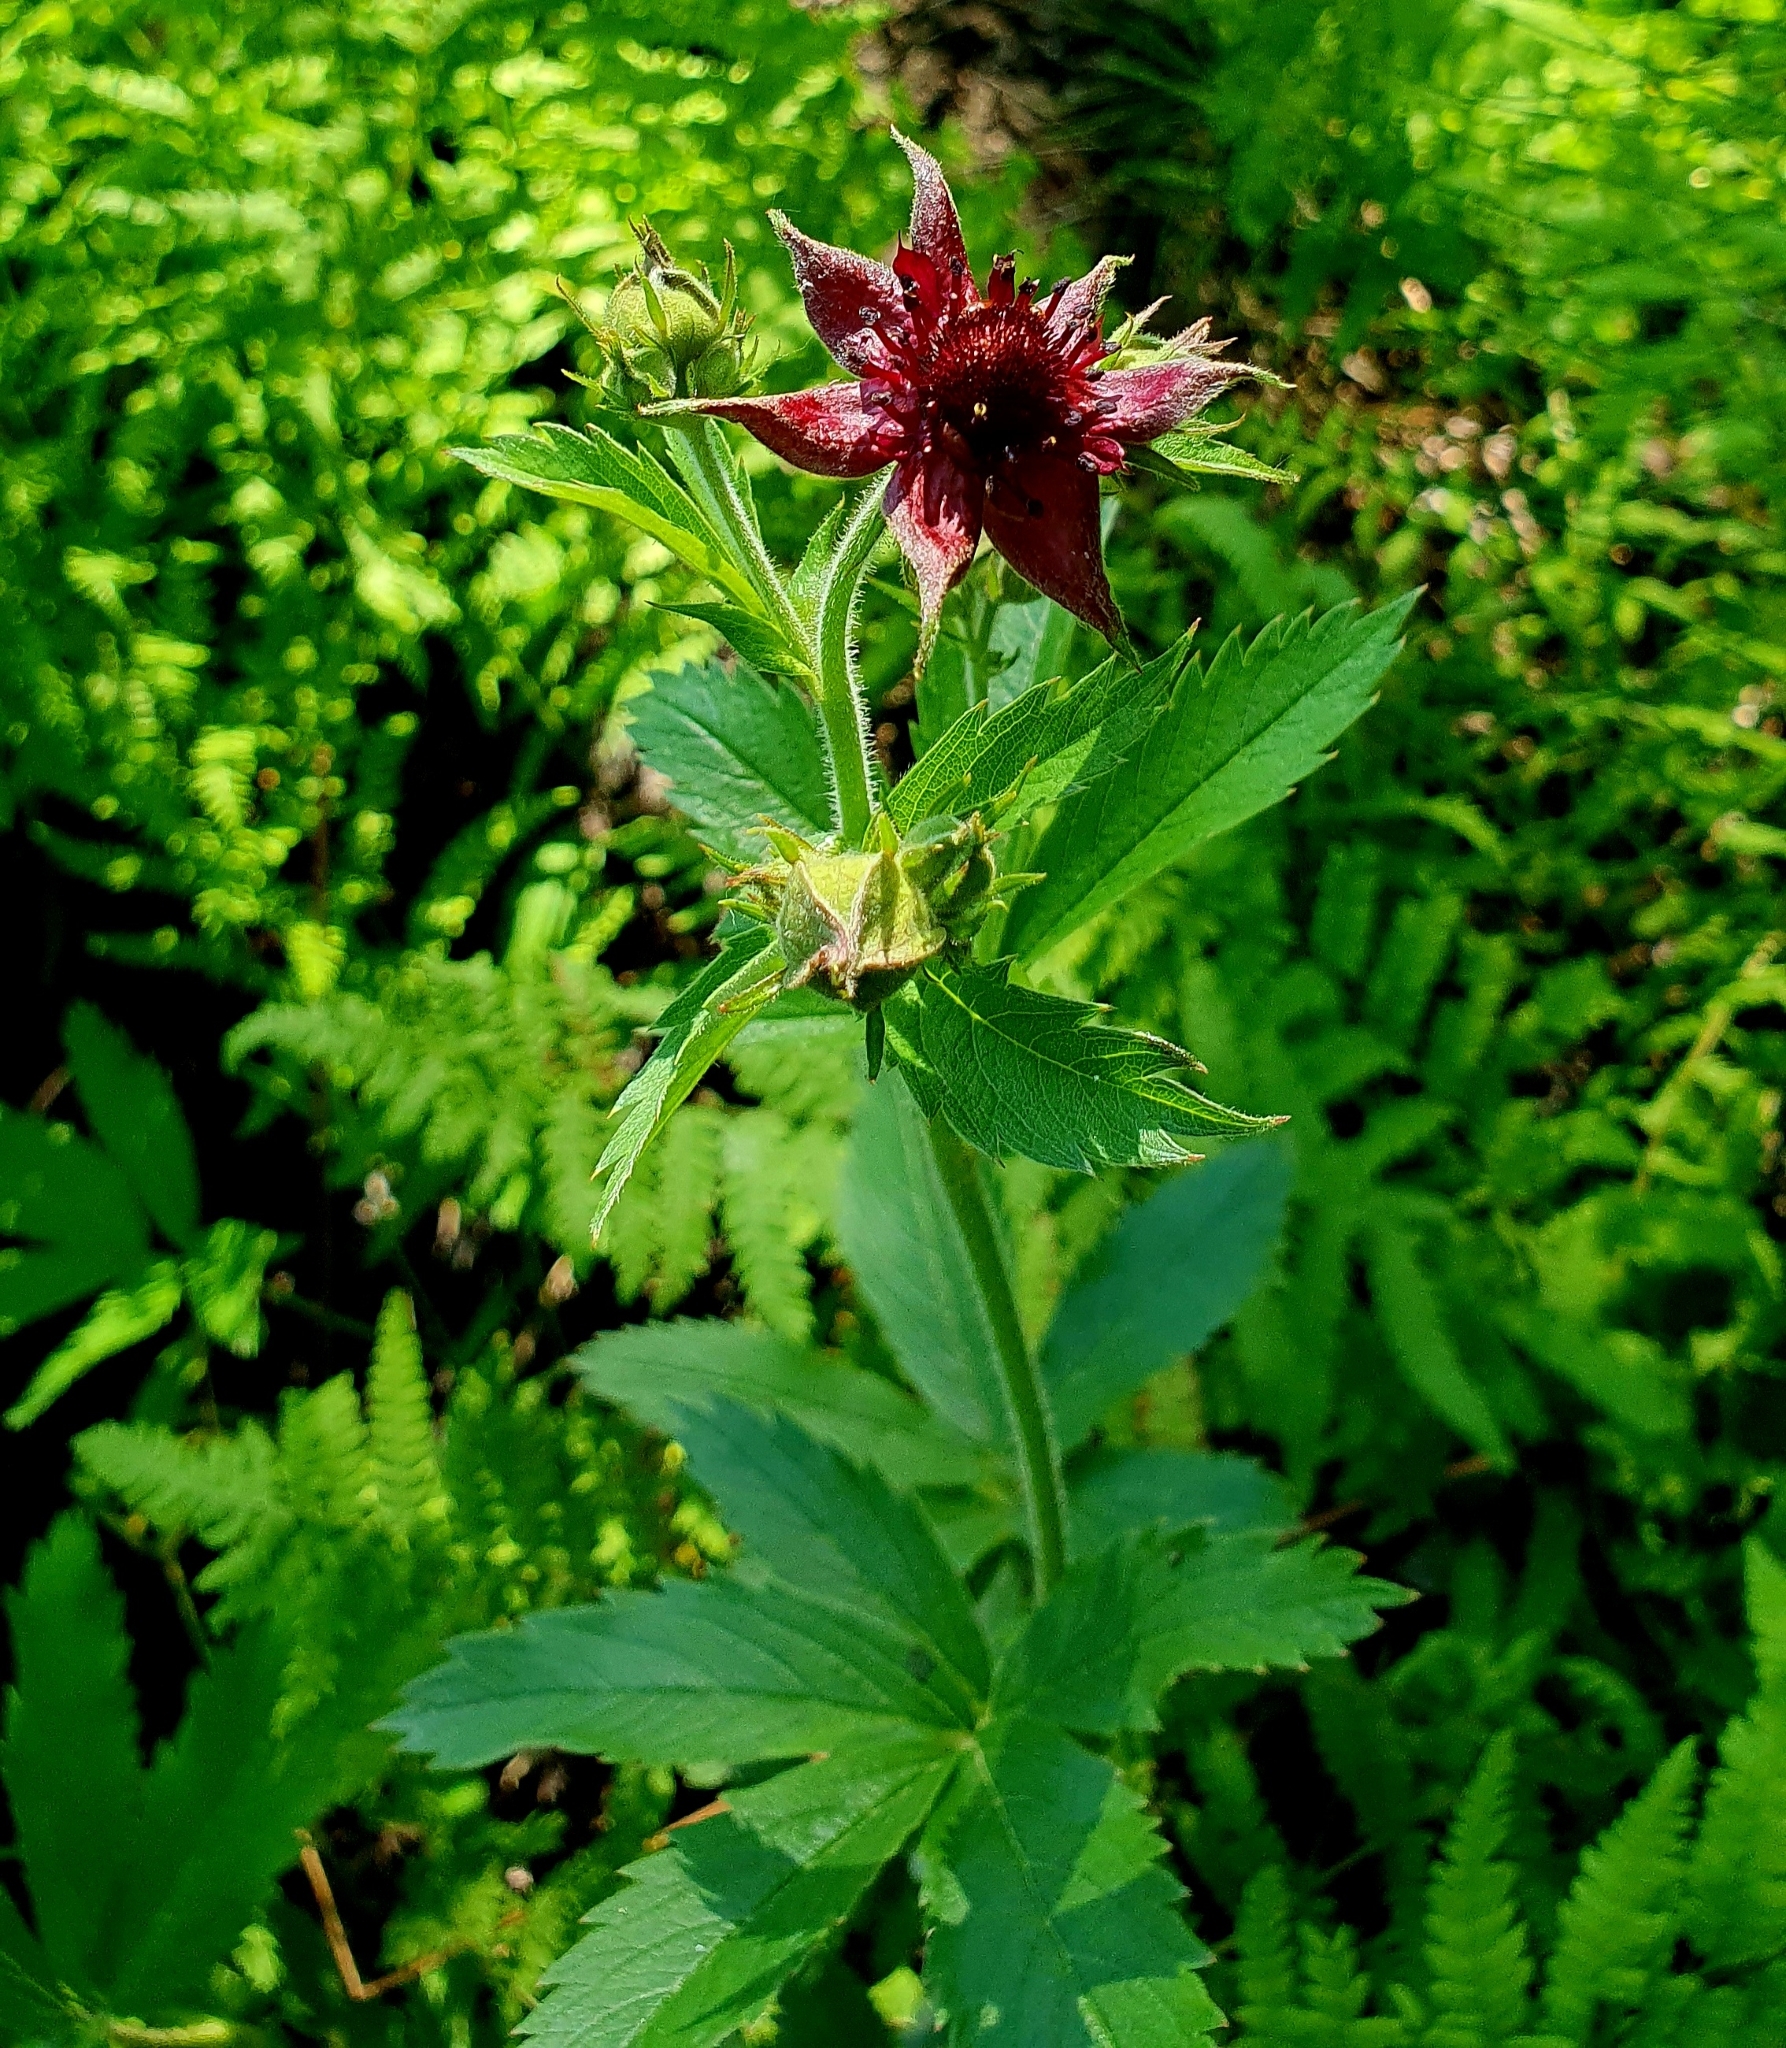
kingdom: Plantae
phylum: Tracheophyta
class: Magnoliopsida
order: Rosales
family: Rosaceae
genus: Comarum
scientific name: Comarum palustre
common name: Marsh cinquefoil
